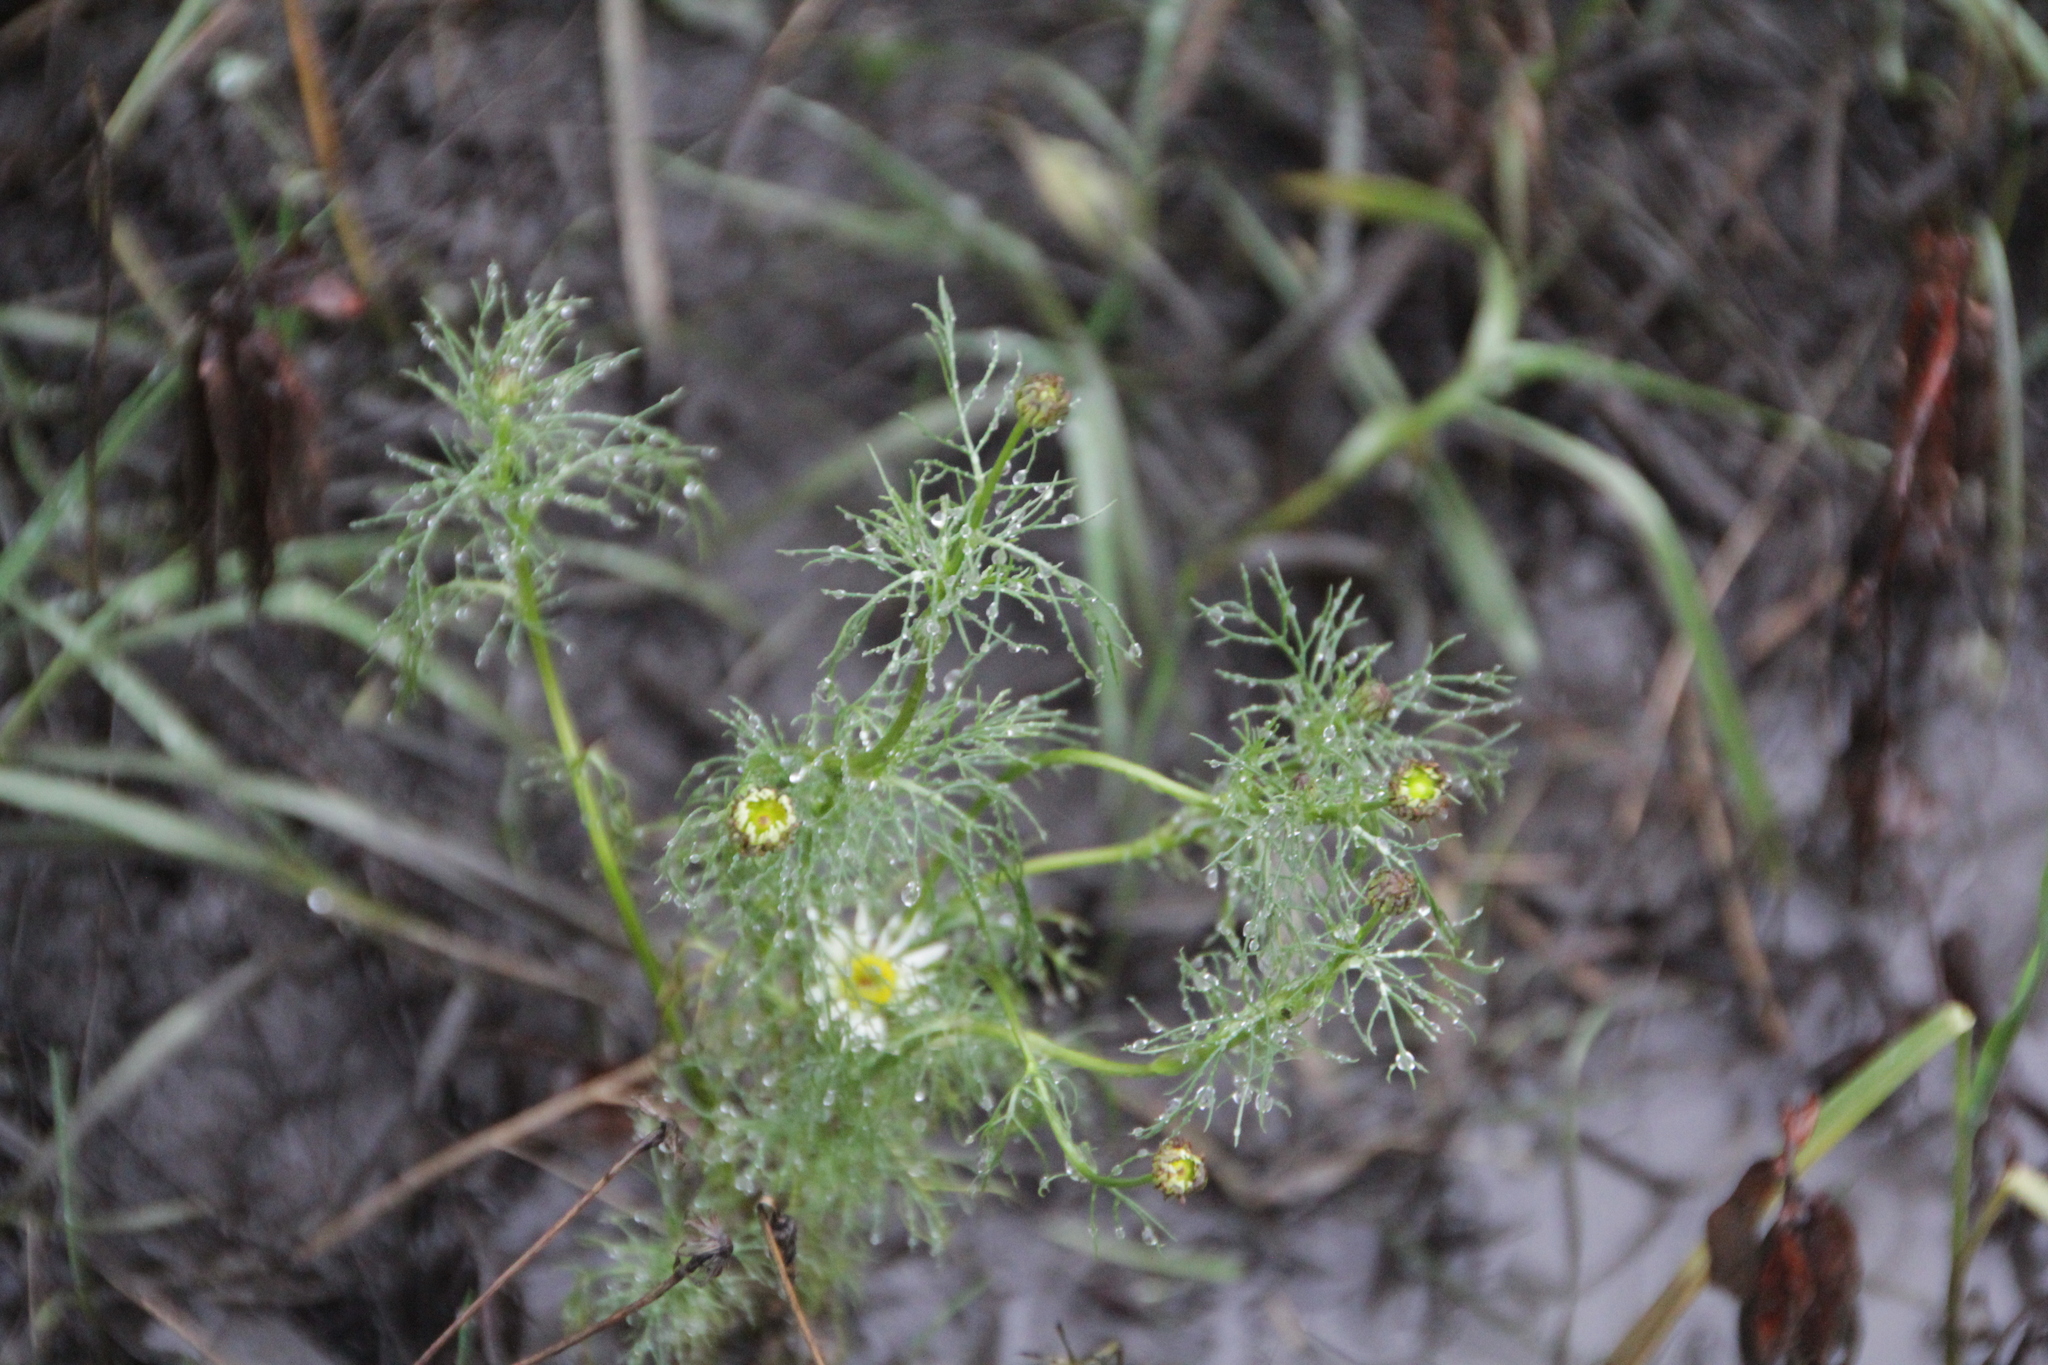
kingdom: Plantae
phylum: Tracheophyta
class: Magnoliopsida
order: Asterales
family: Asteraceae
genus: Tripleurospermum
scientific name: Tripleurospermum inodorum
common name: Scentless mayweed
